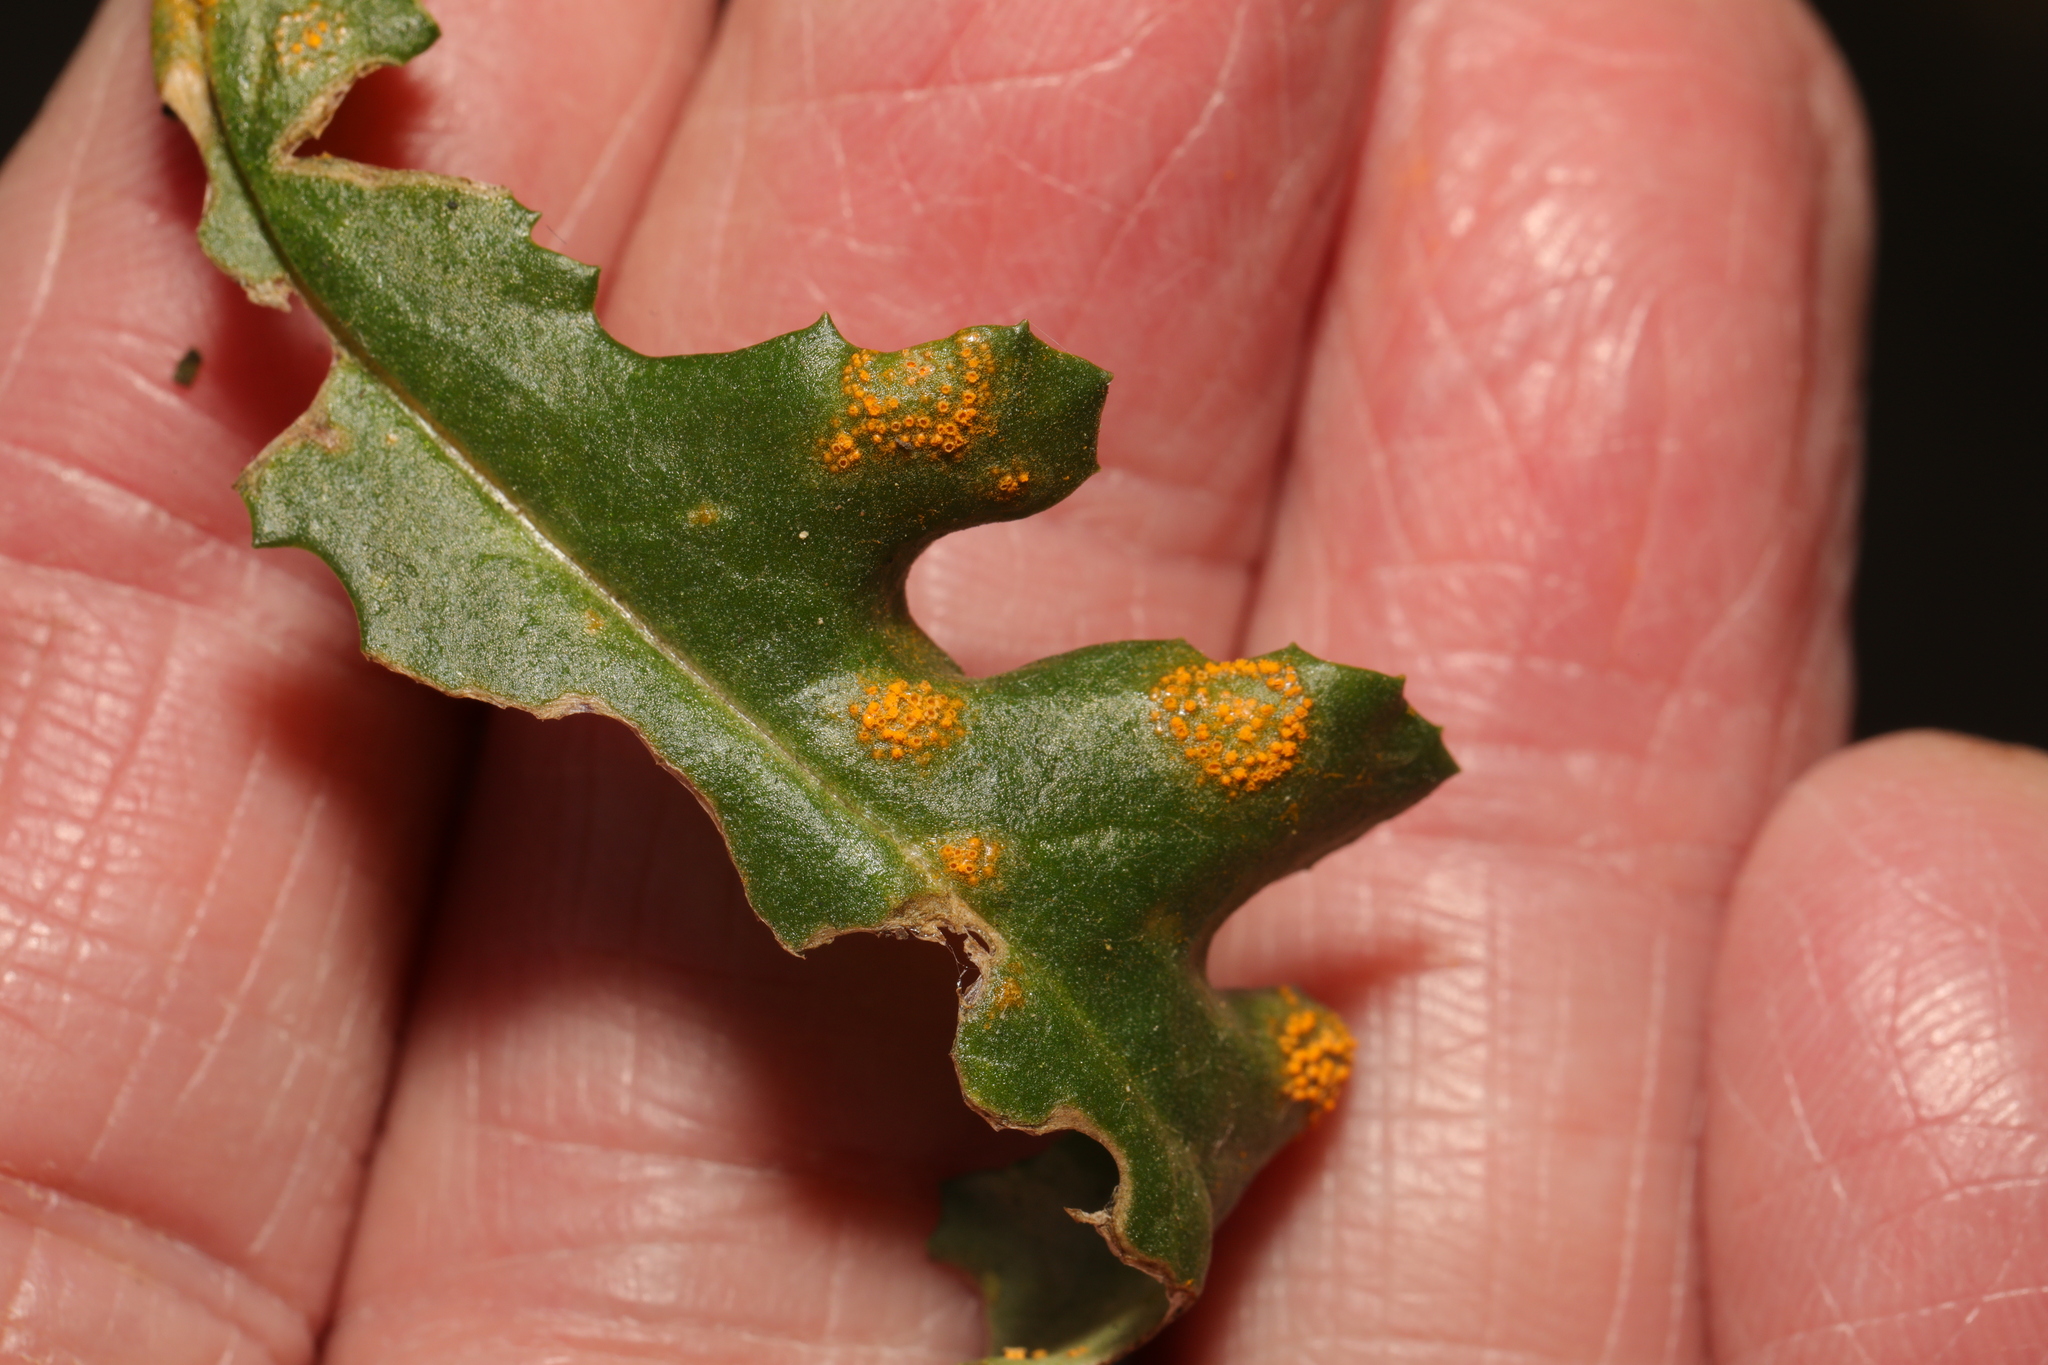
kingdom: Fungi
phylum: Basidiomycota
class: Pucciniomycetes
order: Pucciniales
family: Pucciniaceae
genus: Puccinia
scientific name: Puccinia lagenophorae
